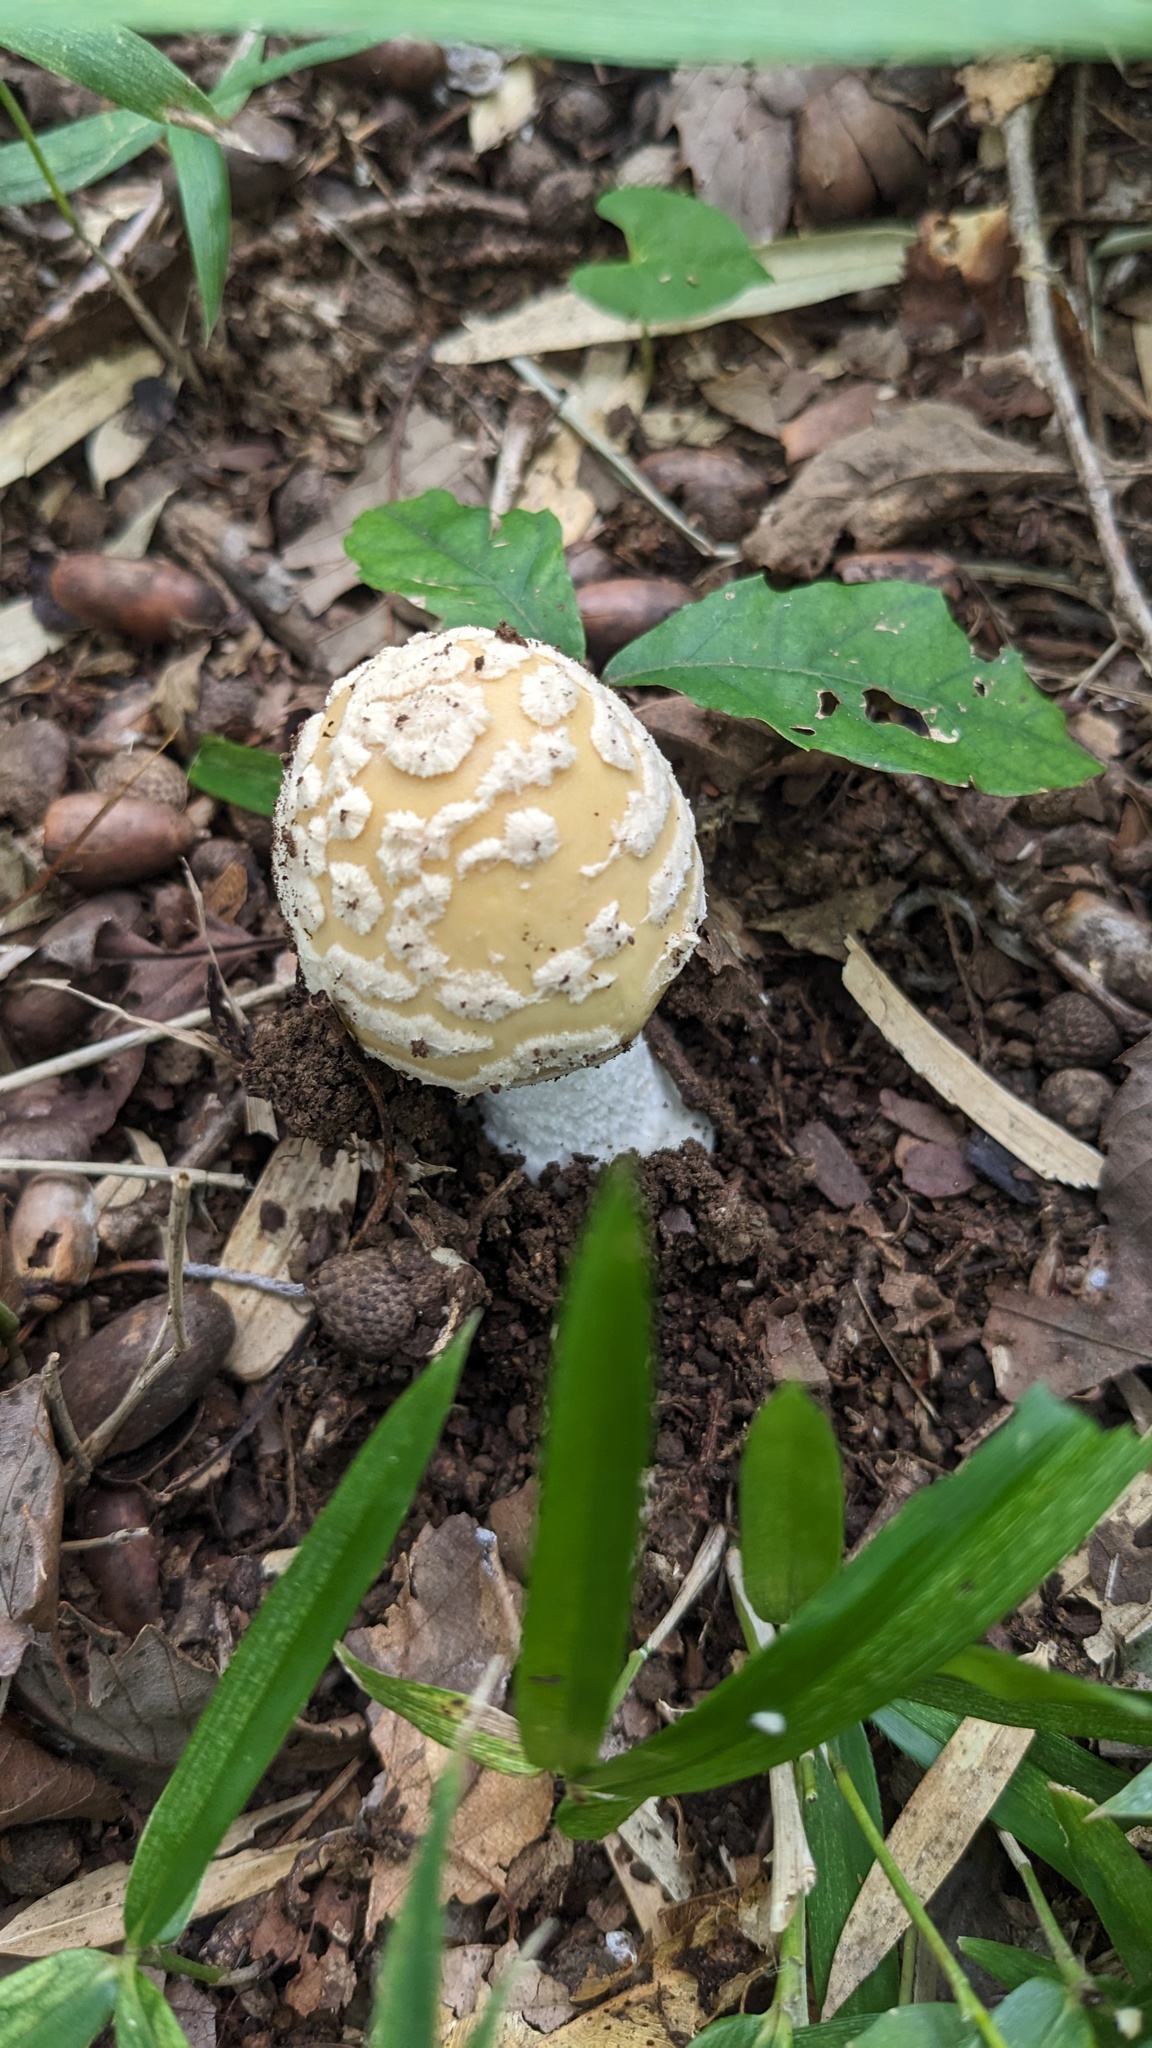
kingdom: Fungi
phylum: Basidiomycota
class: Agaricomycetes
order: Agaricales
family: Amanitaceae
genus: Amanita
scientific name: Amanita orientigemmata
